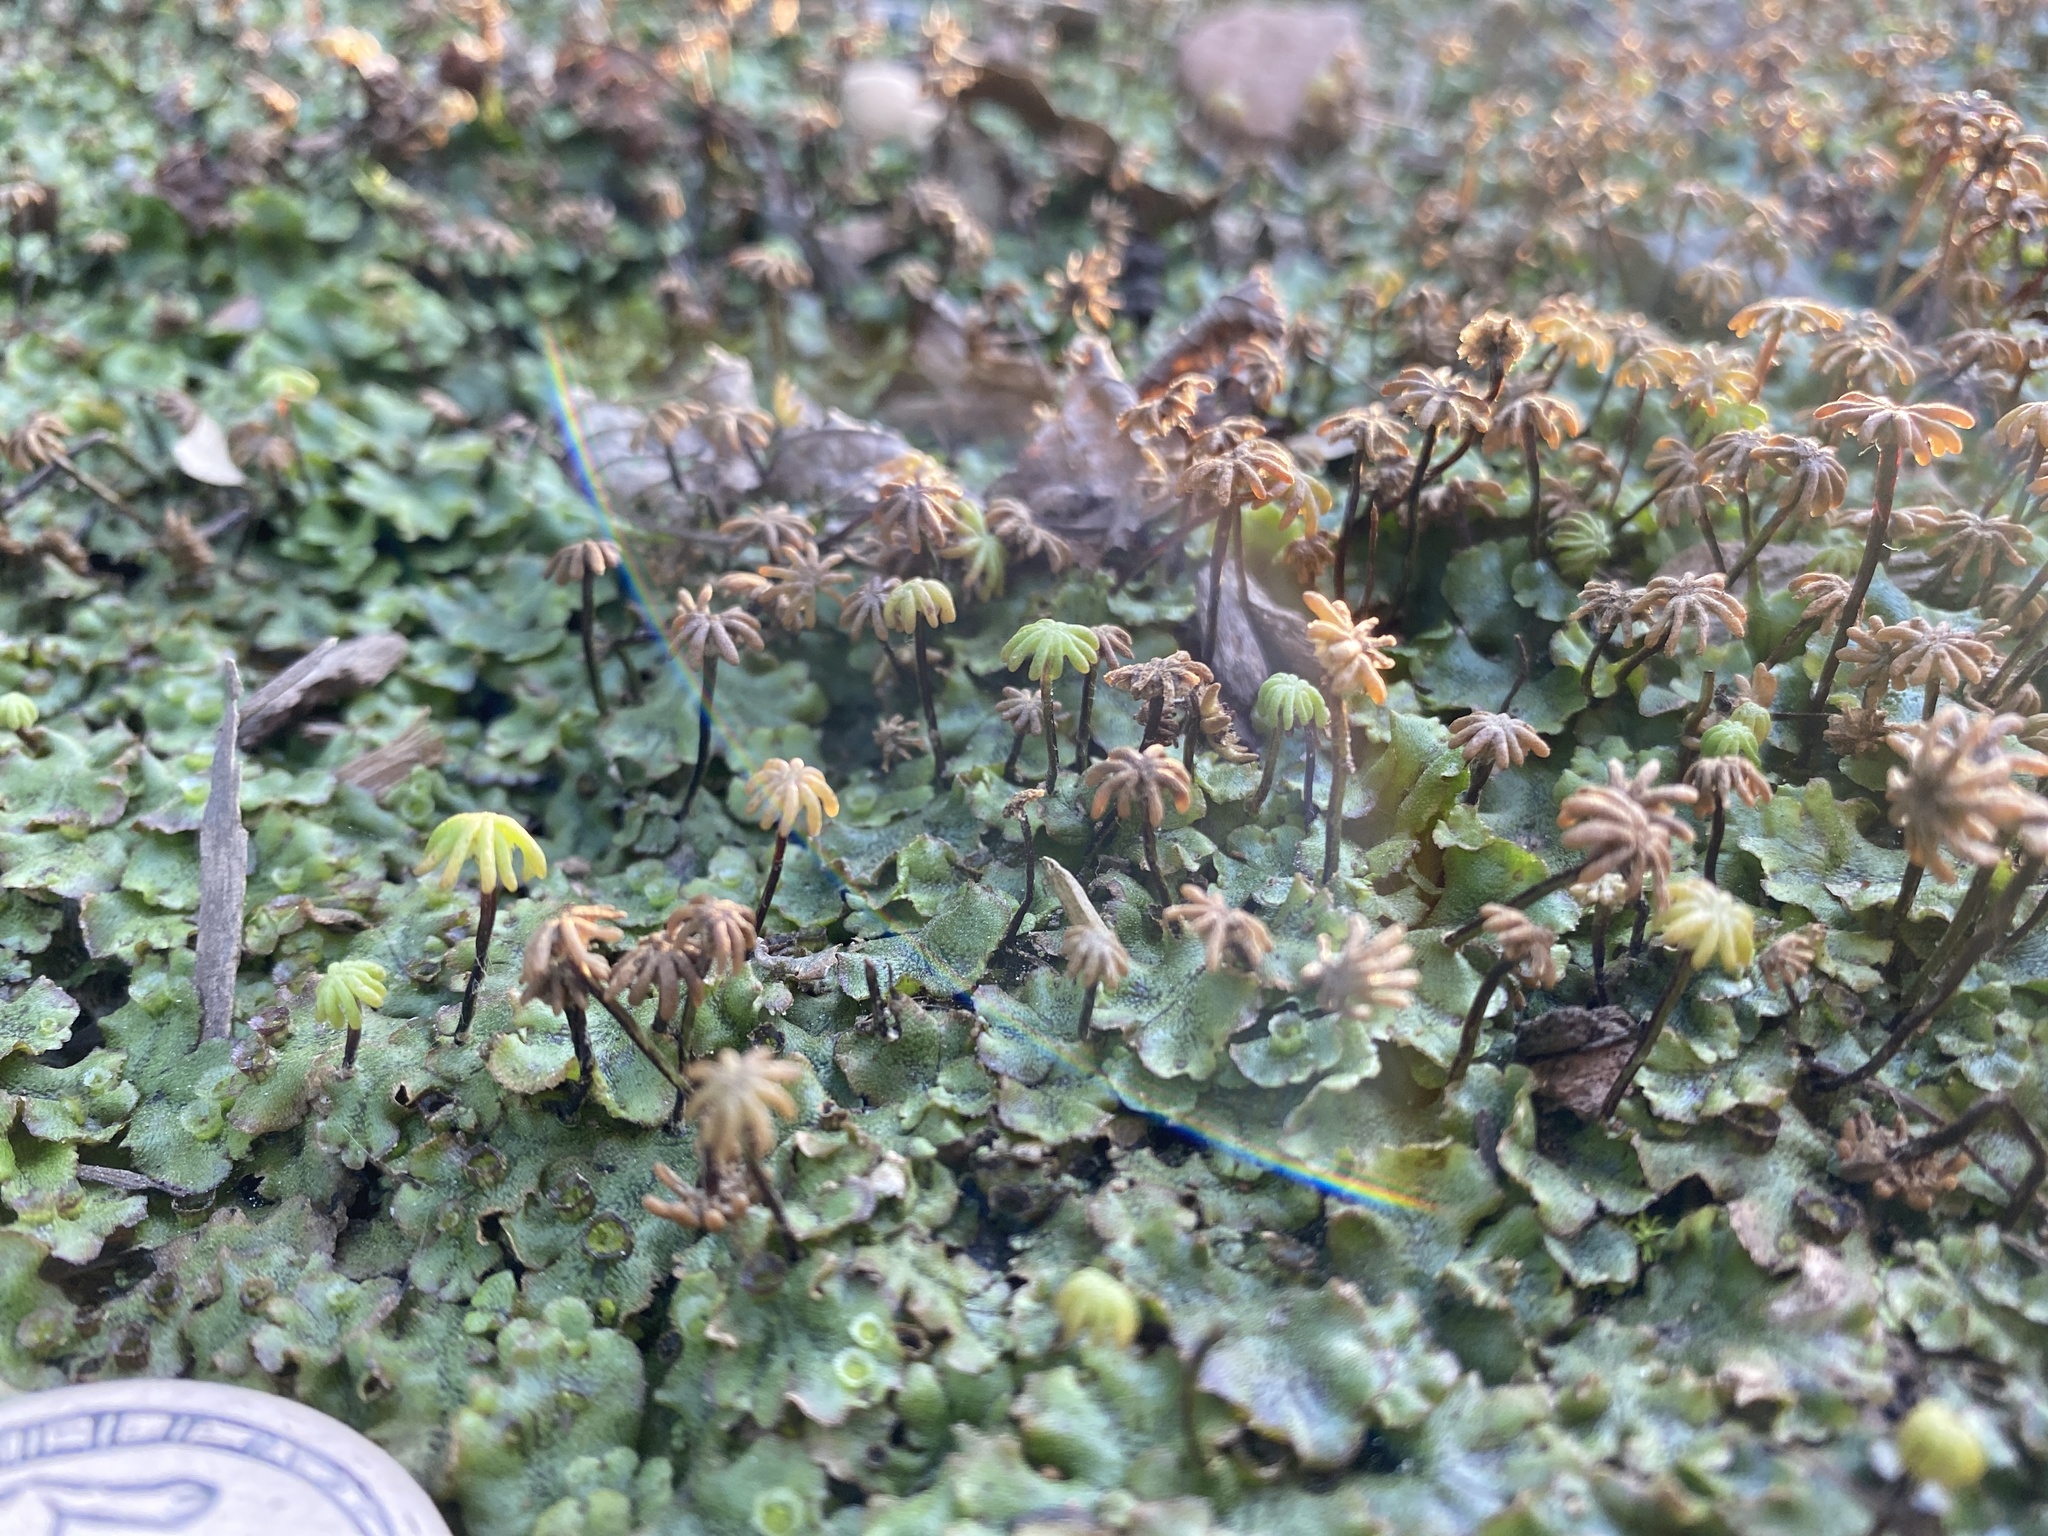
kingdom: Plantae
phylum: Marchantiophyta
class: Marchantiopsida
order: Marchantiales
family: Marchantiaceae
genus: Marchantia
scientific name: Marchantia polymorpha
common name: Common liverwort
